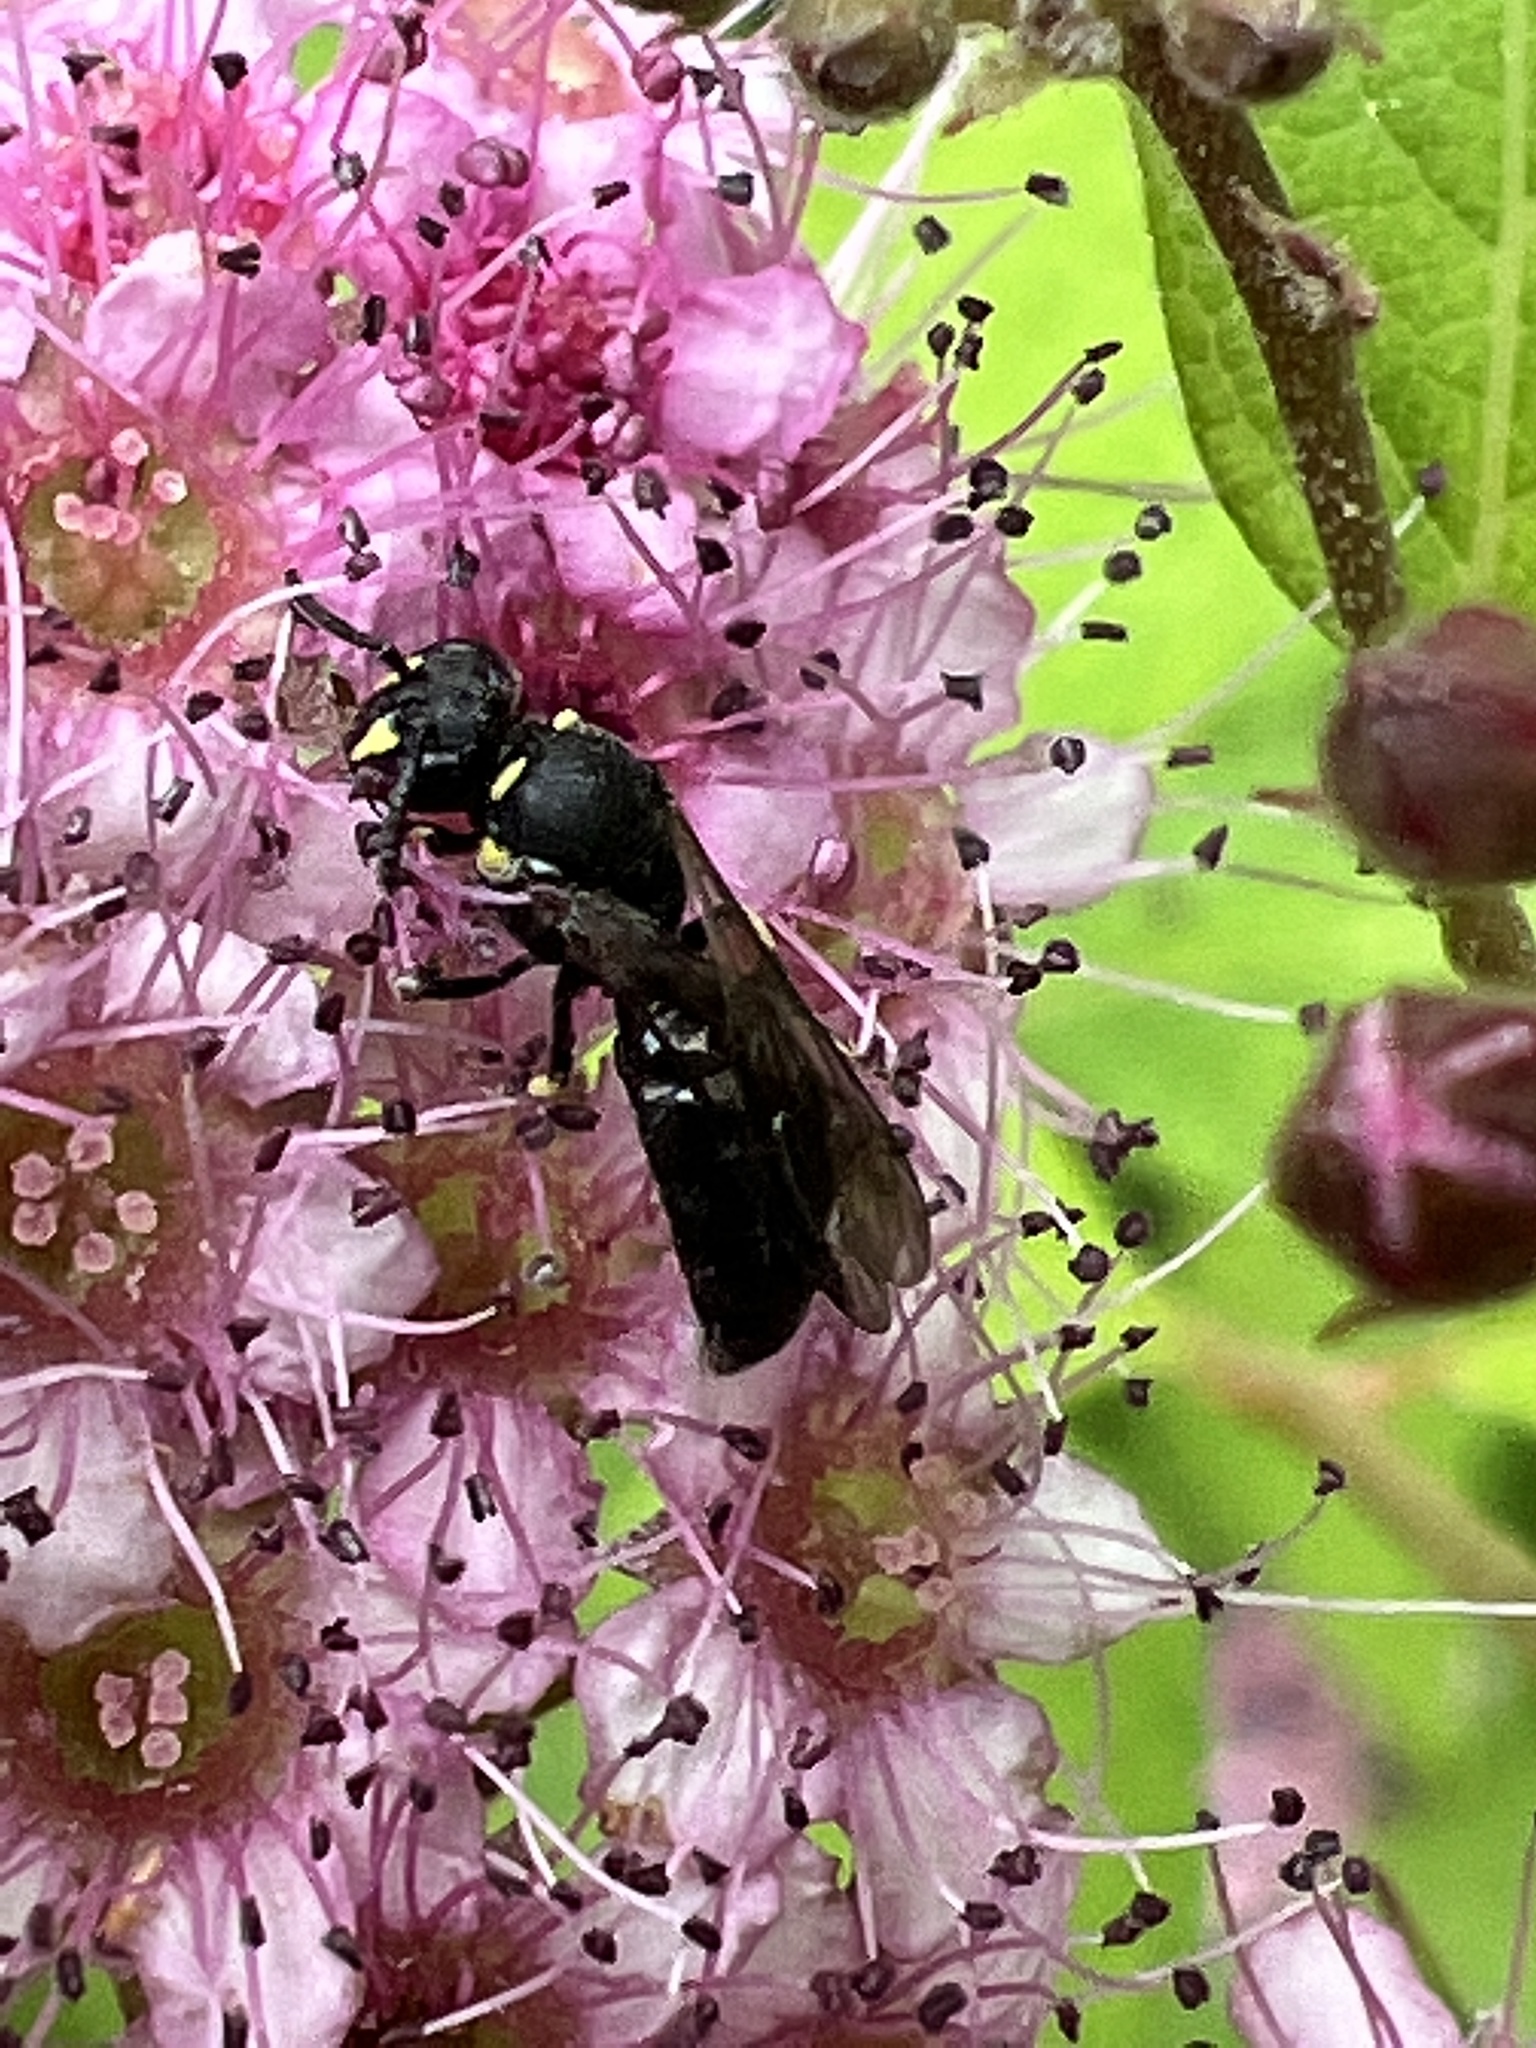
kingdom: Animalia
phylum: Arthropoda
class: Insecta
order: Hymenoptera
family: Colletidae
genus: Hylaeus
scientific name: Hylaeus modestus
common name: Yellow-faced bee
